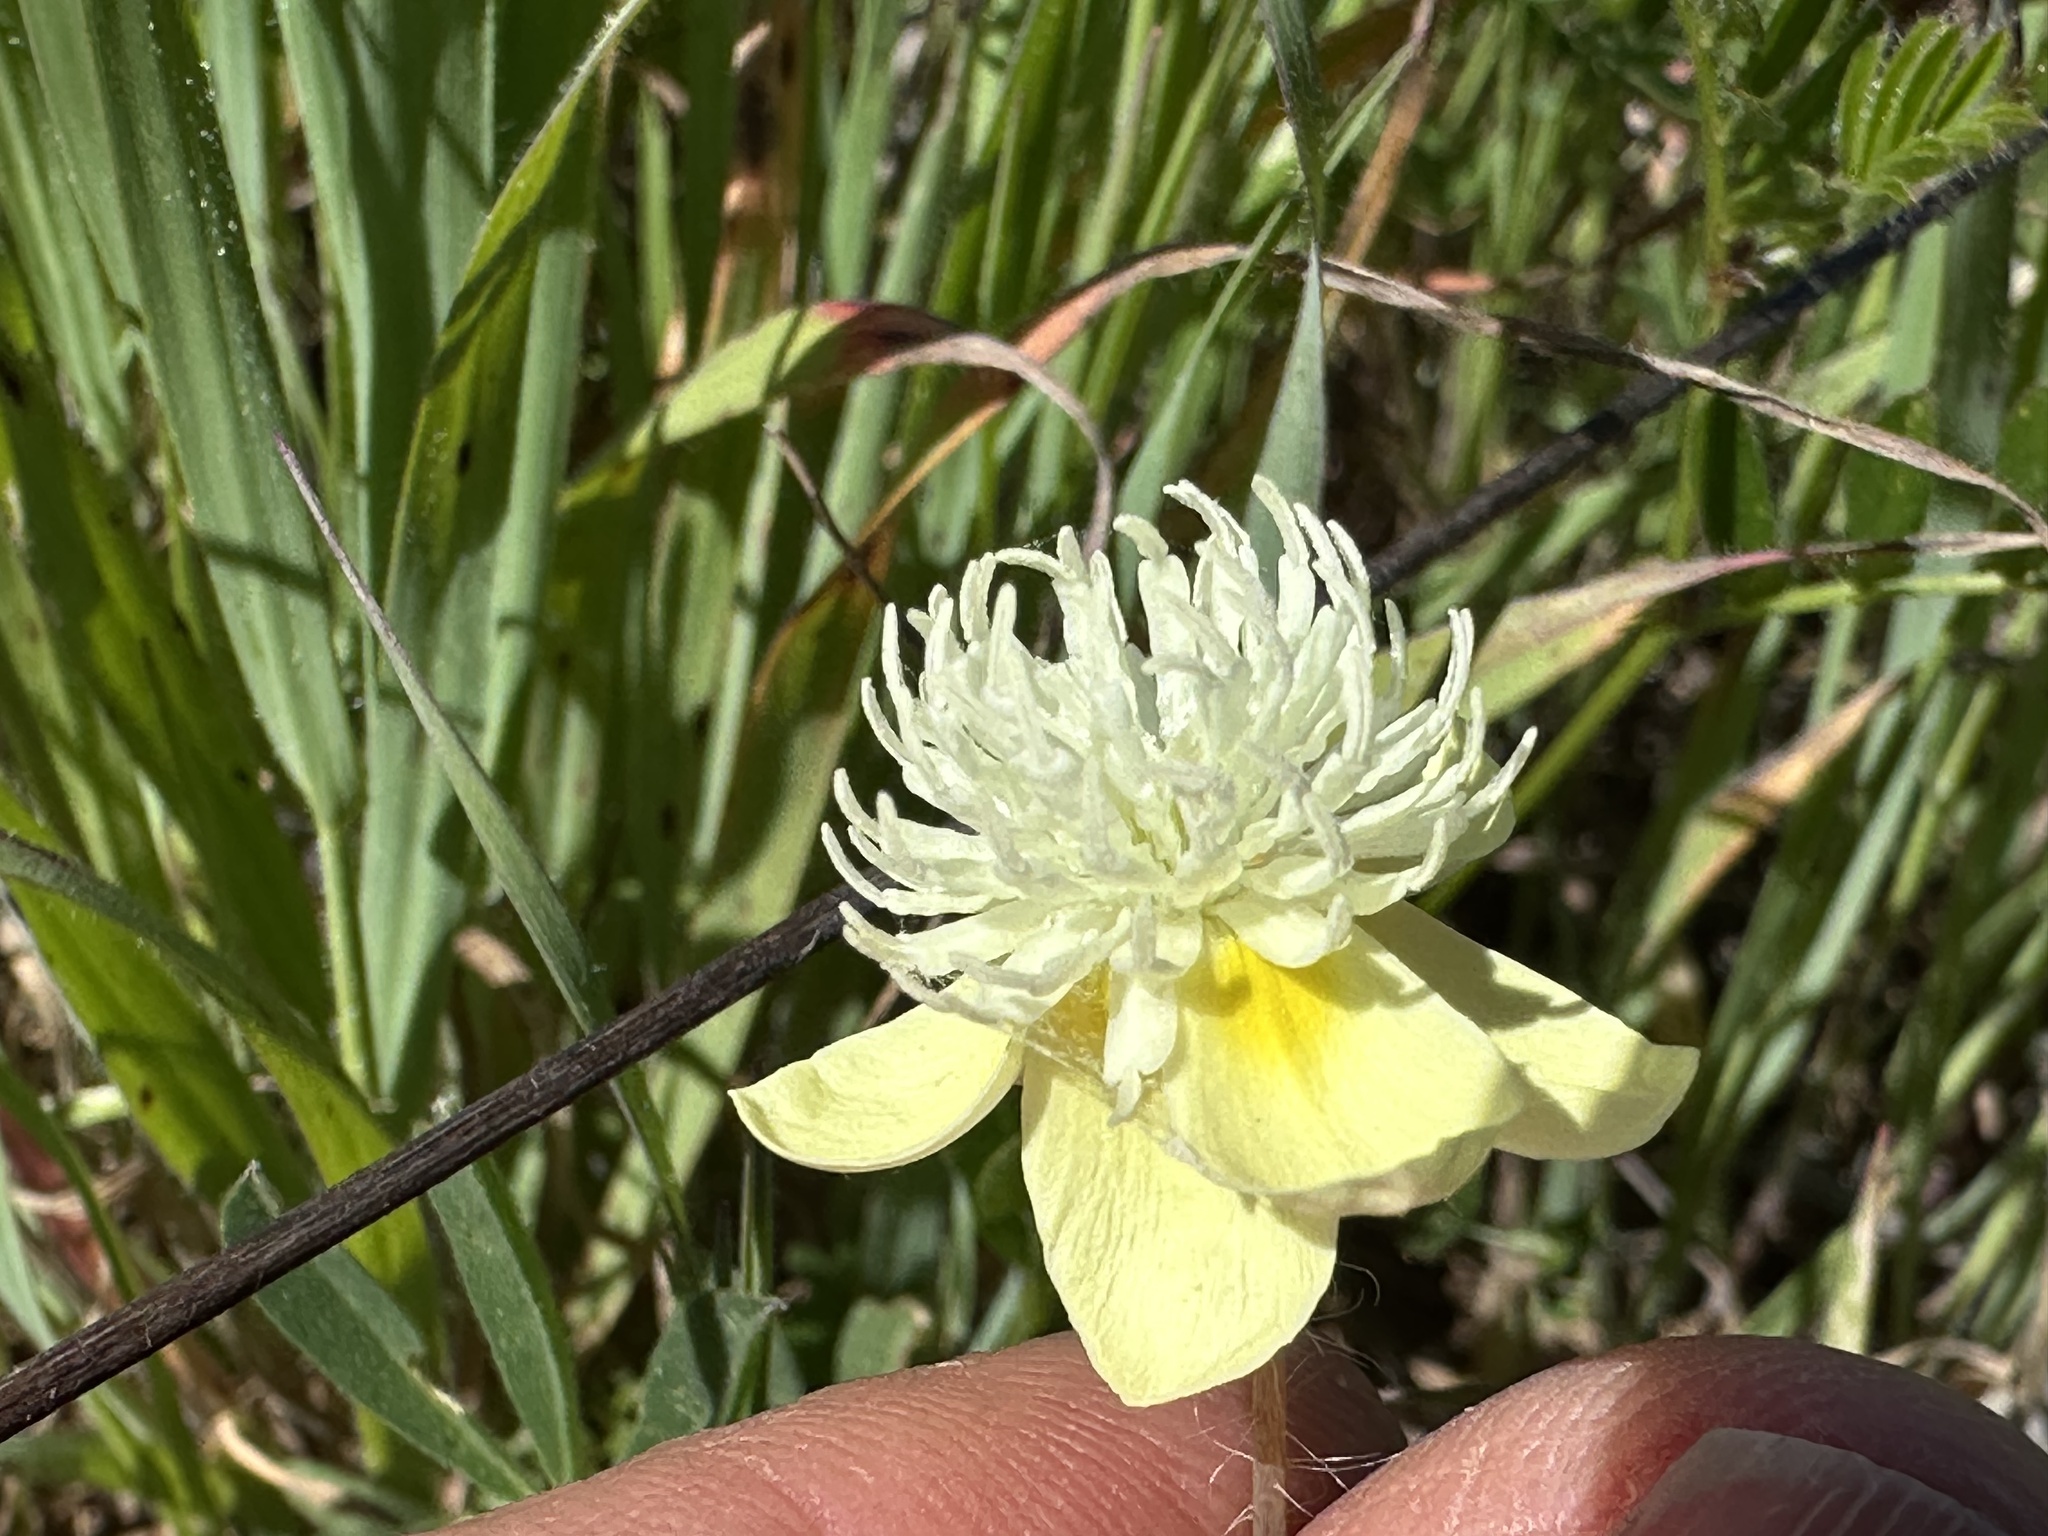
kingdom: Plantae
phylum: Tracheophyta
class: Magnoliopsida
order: Ranunculales
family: Papaveraceae
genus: Platystemon
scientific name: Platystemon californicus
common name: Cream-cups
